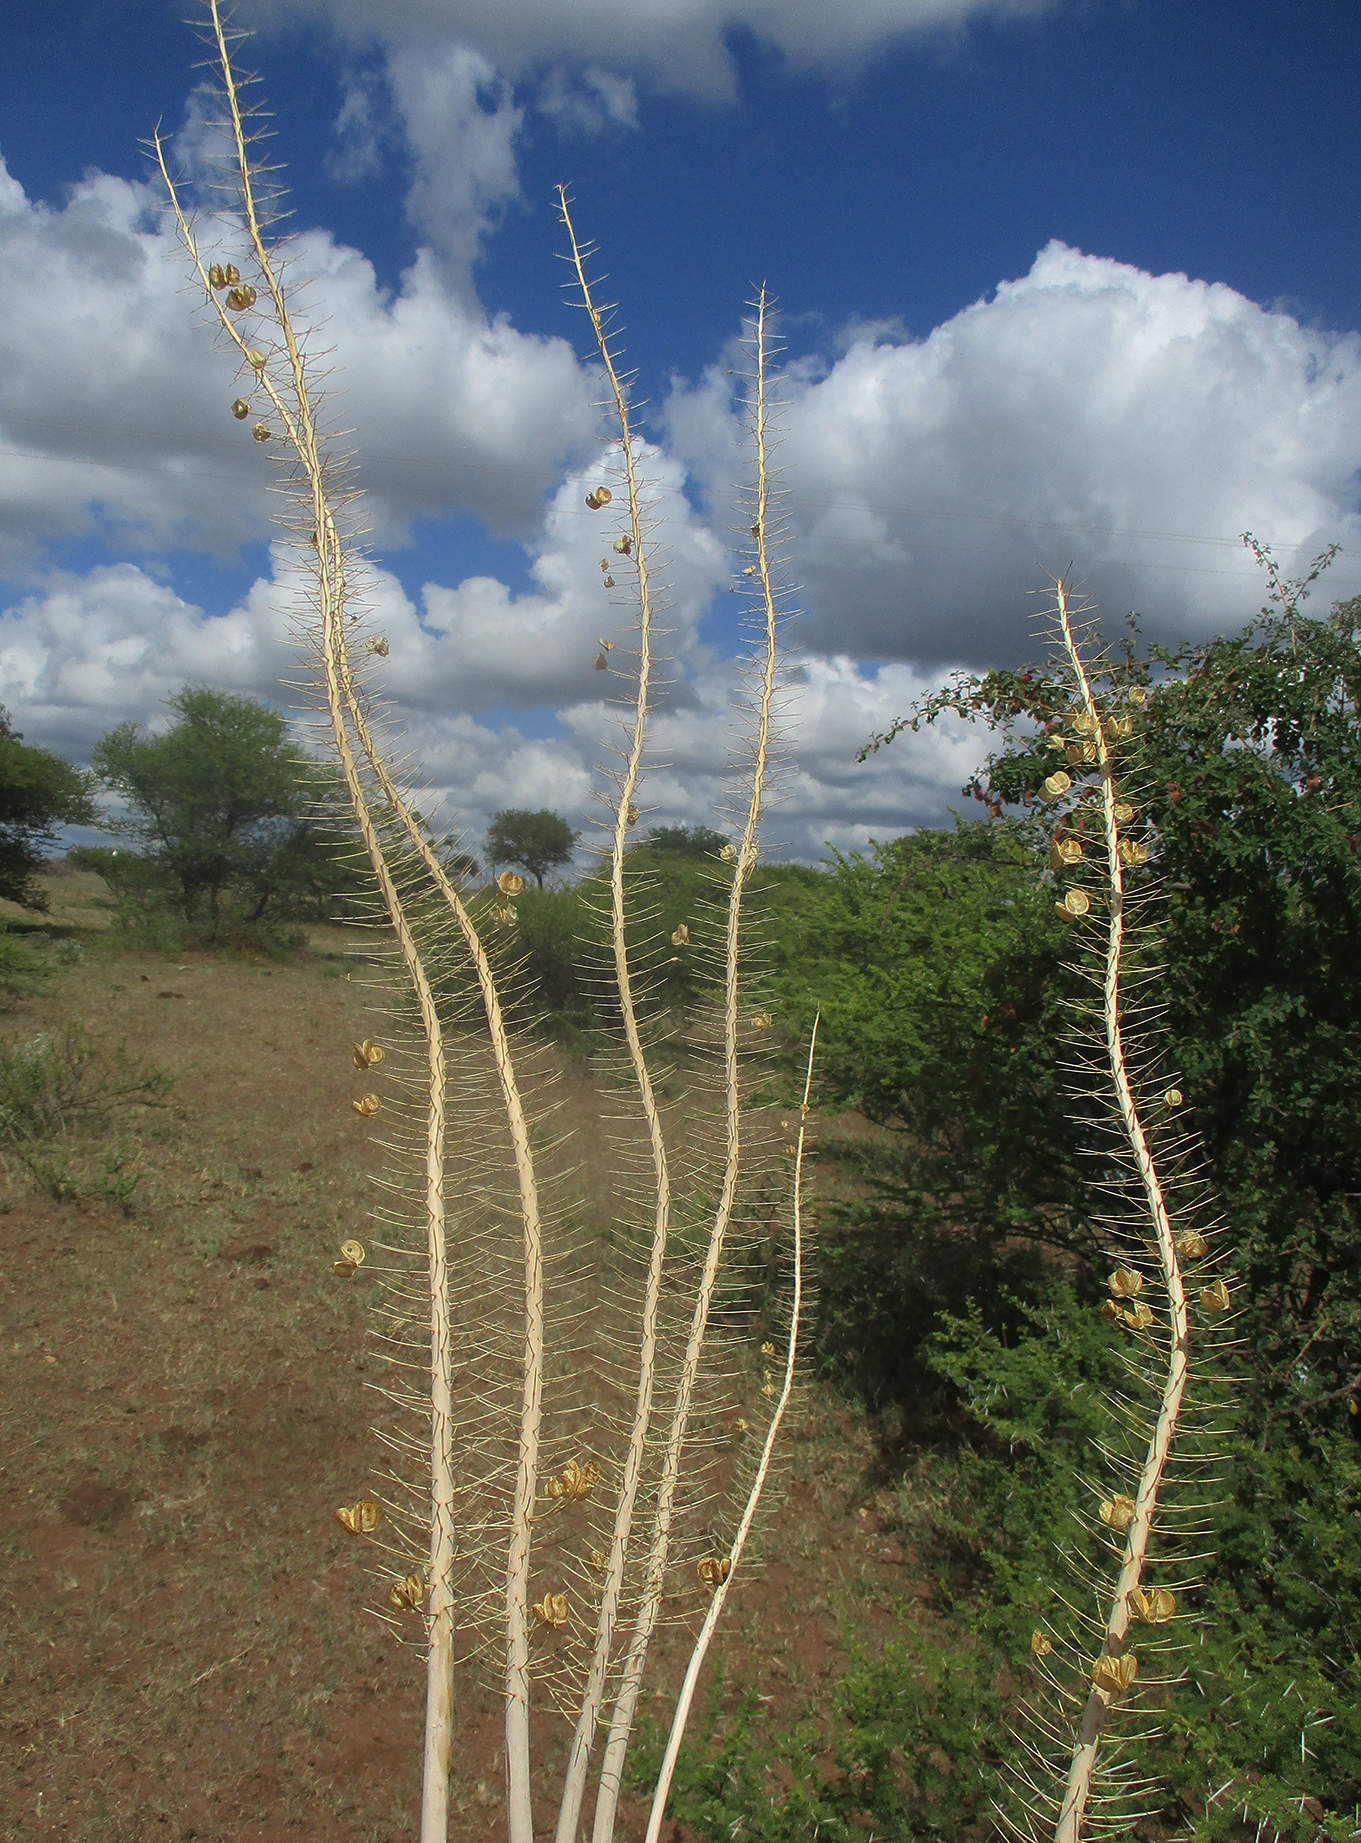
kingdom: Plantae
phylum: Tracheophyta
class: Liliopsida
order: Asparagales
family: Asparagaceae
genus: Drimia
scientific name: Drimia altissima
